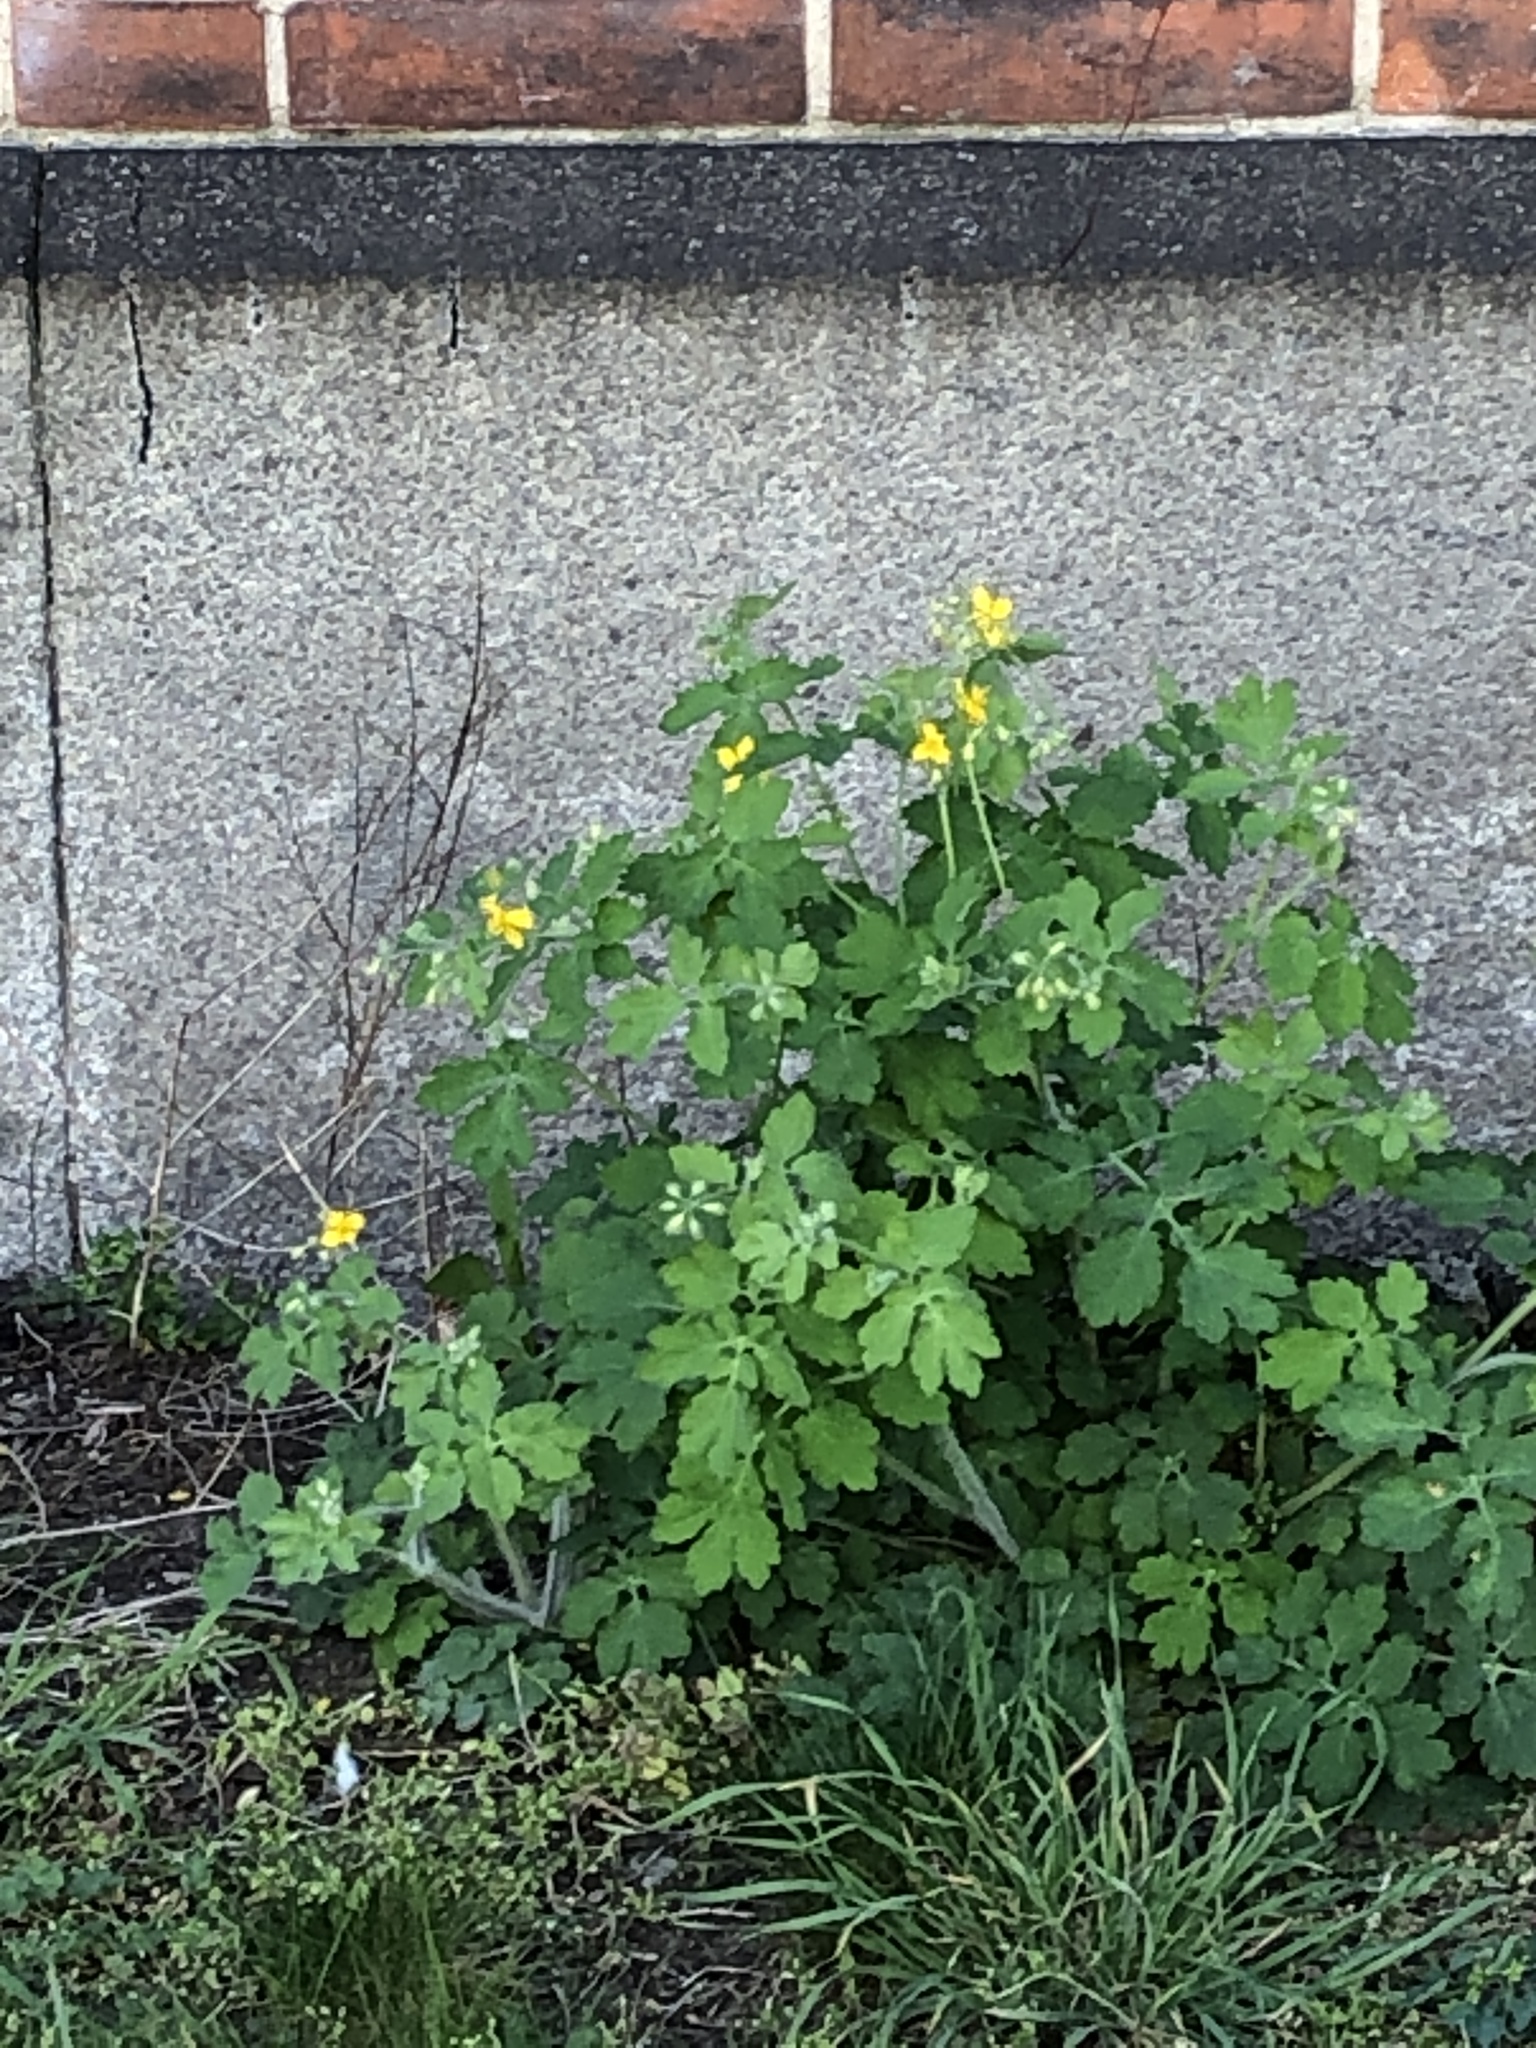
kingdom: Plantae
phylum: Tracheophyta
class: Magnoliopsida
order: Ranunculales
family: Papaveraceae
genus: Chelidonium
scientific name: Chelidonium majus
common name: Greater celandine
